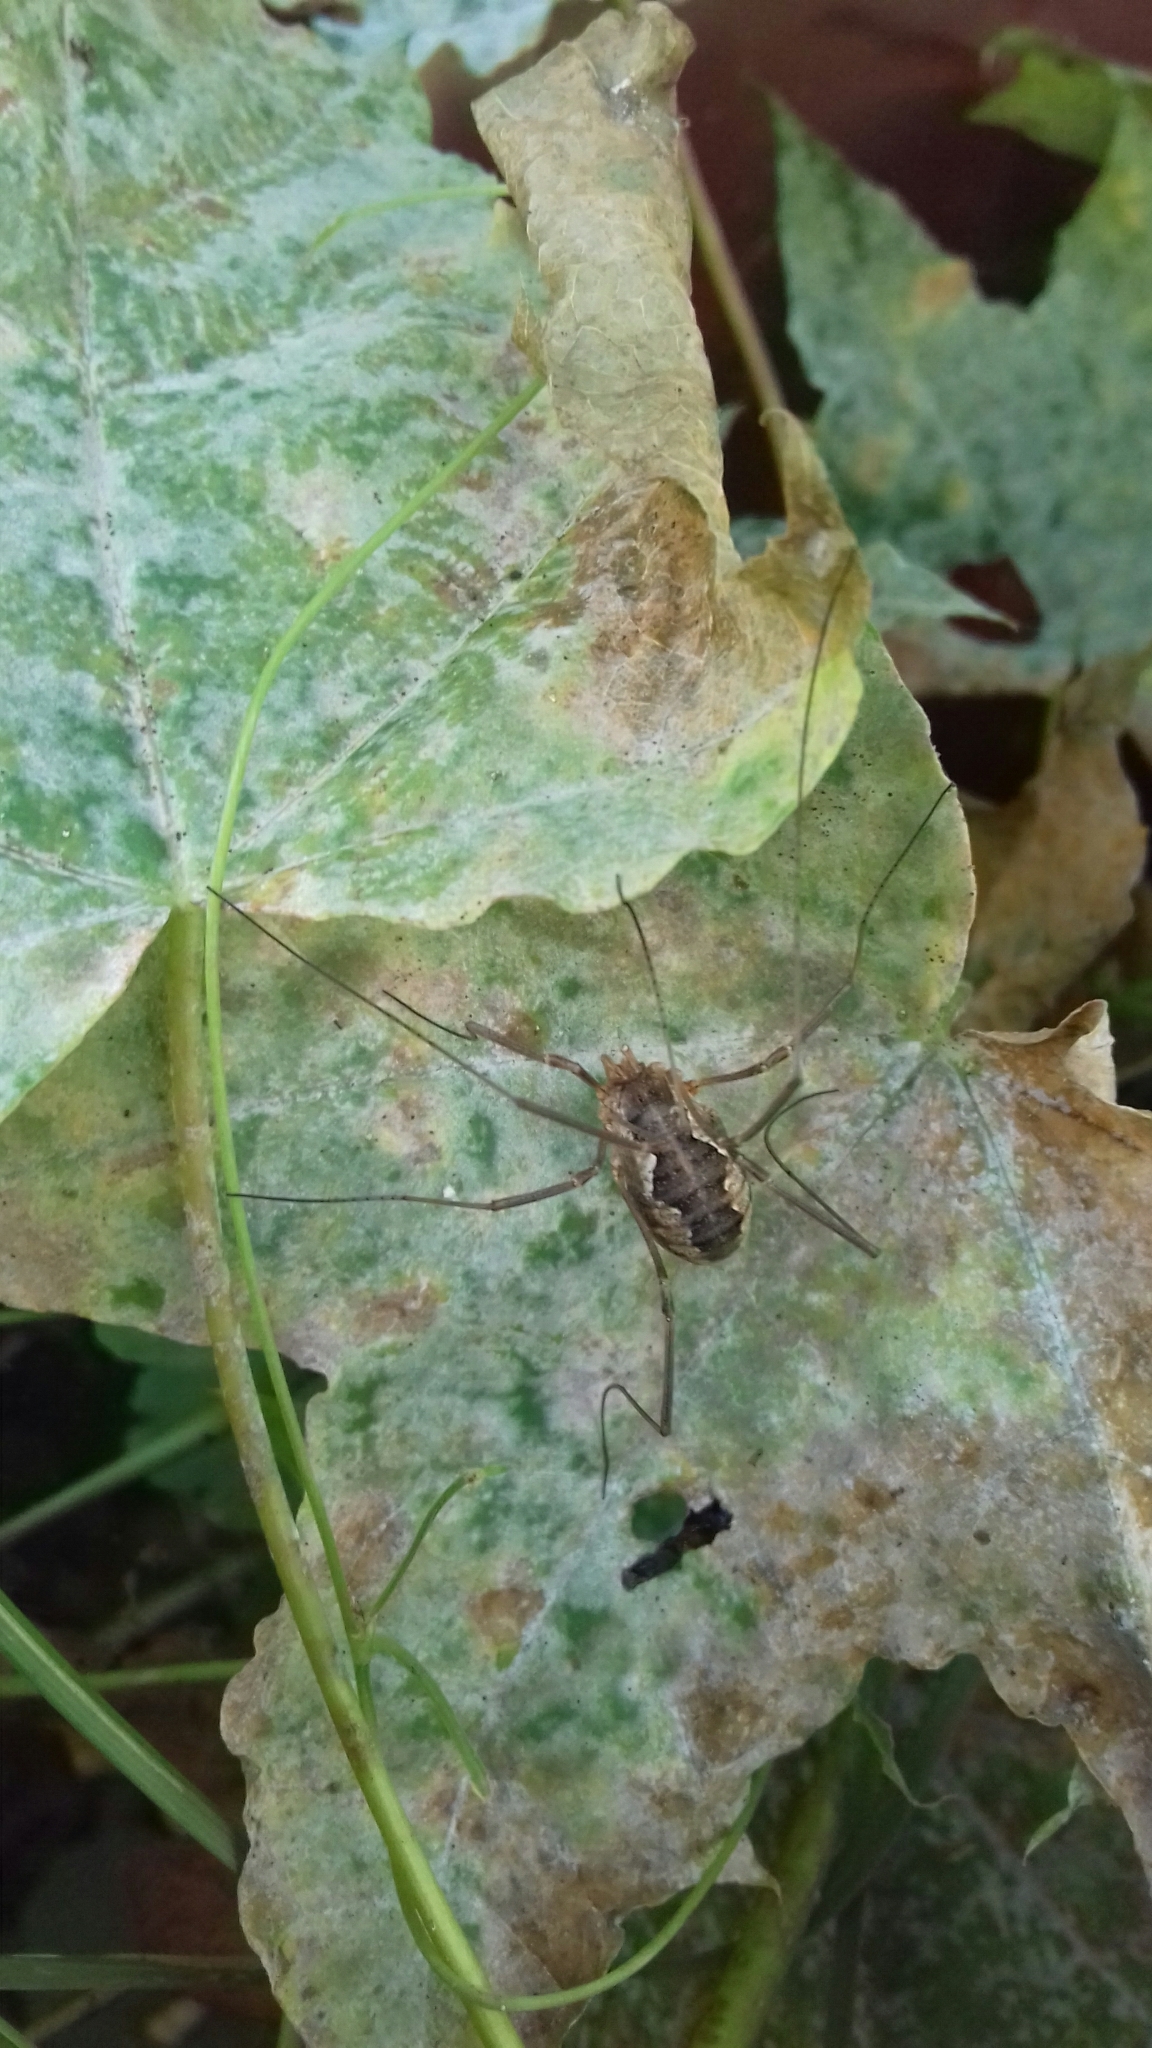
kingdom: Animalia
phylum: Arthropoda
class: Arachnida
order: Opiliones
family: Phalangiidae
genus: Phalangium
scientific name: Phalangium opilio
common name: Daddy longleg
